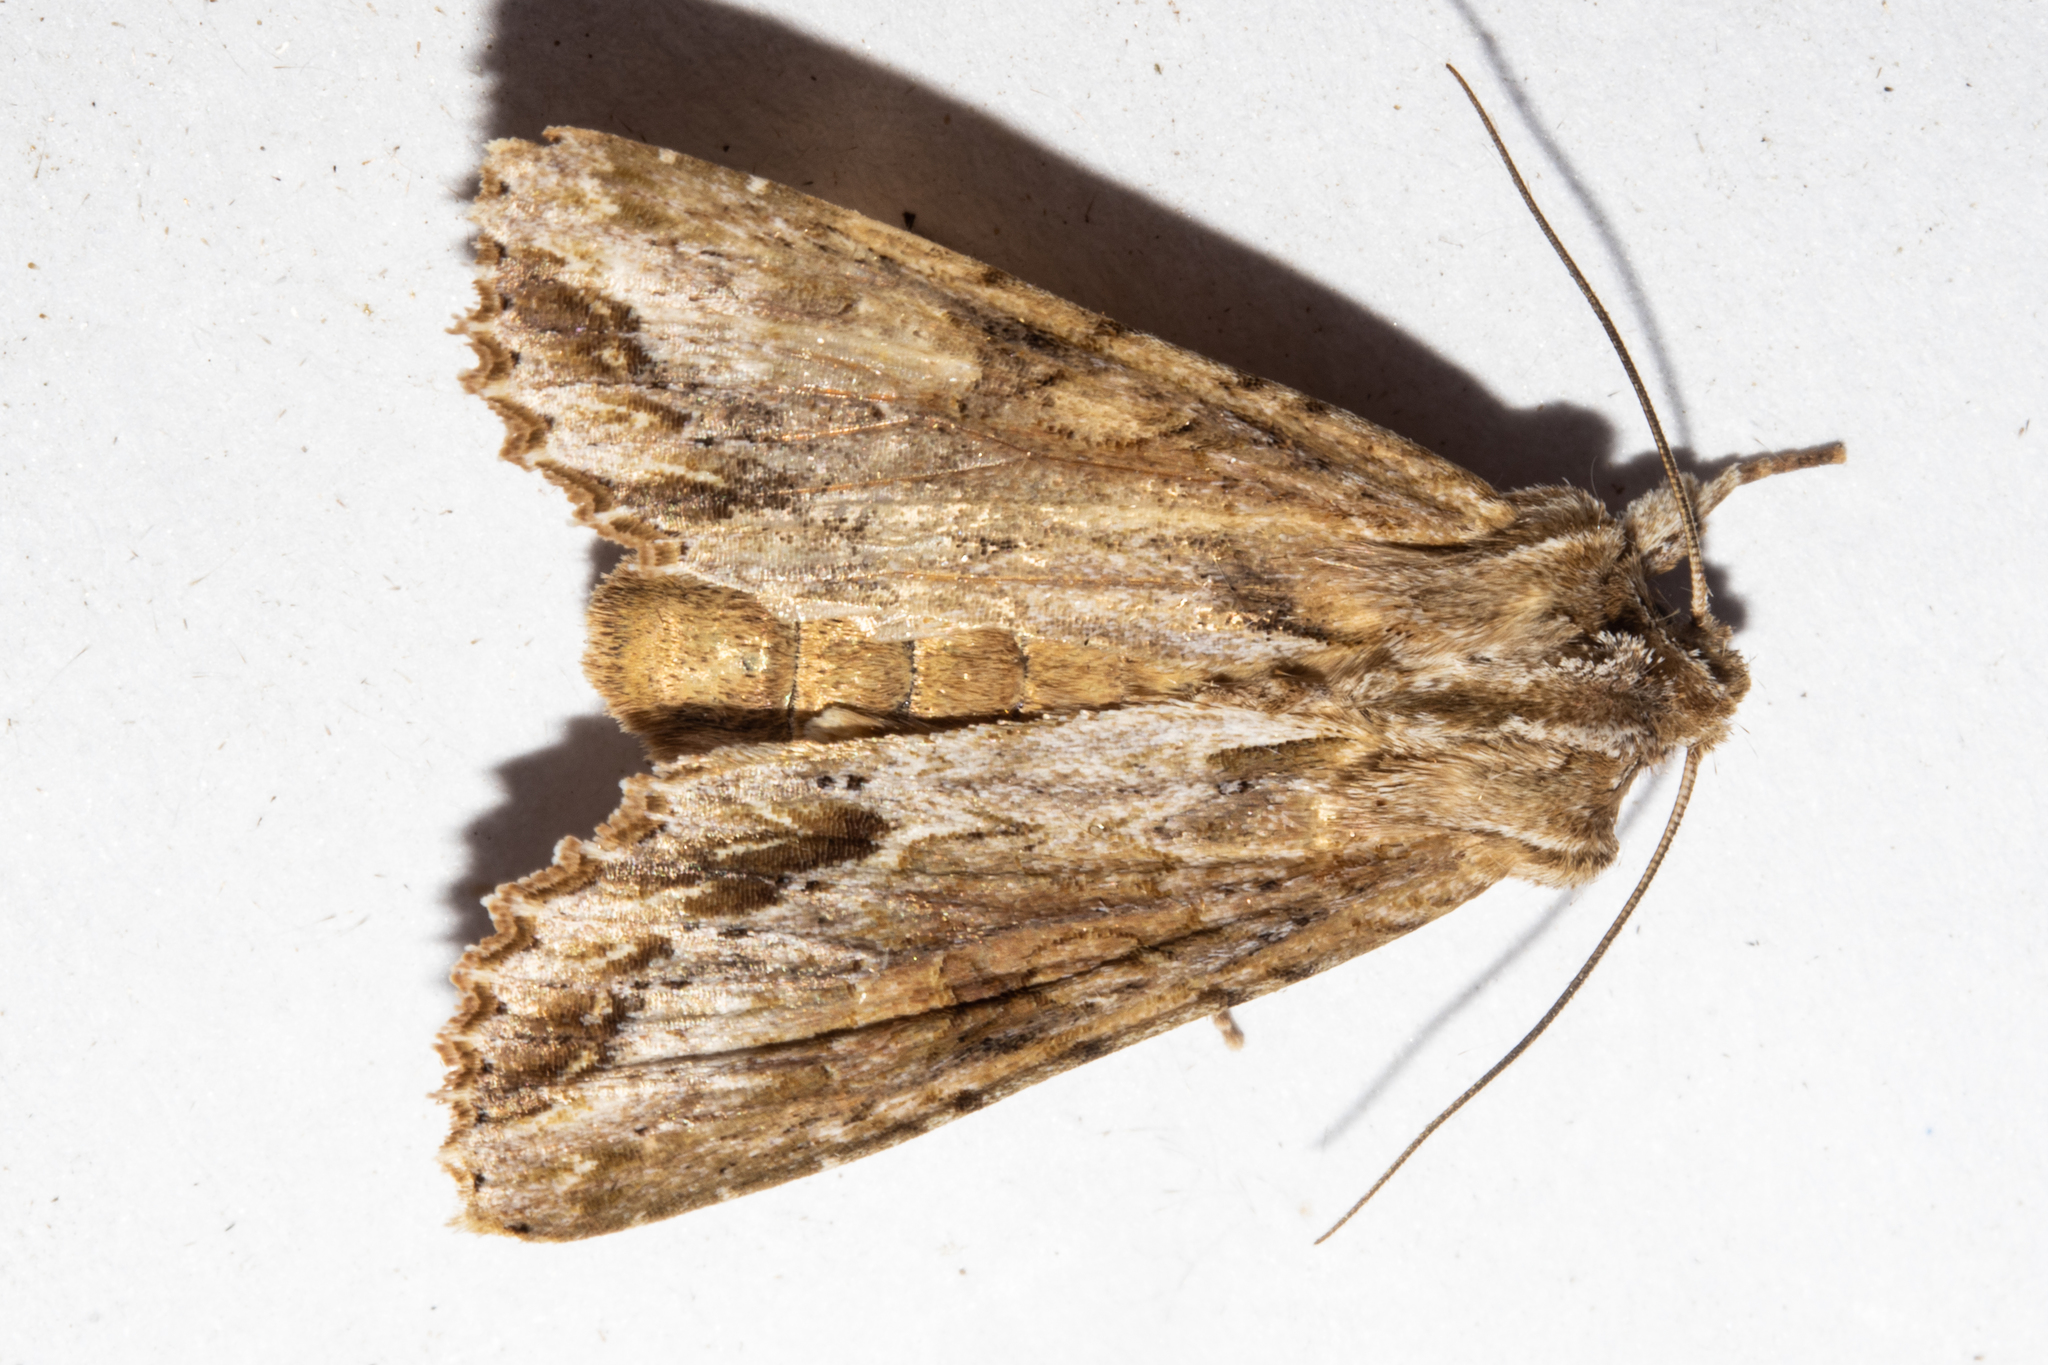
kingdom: Animalia
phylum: Arthropoda
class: Insecta
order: Lepidoptera
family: Noctuidae
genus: Ichneutica
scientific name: Ichneutica mollis
